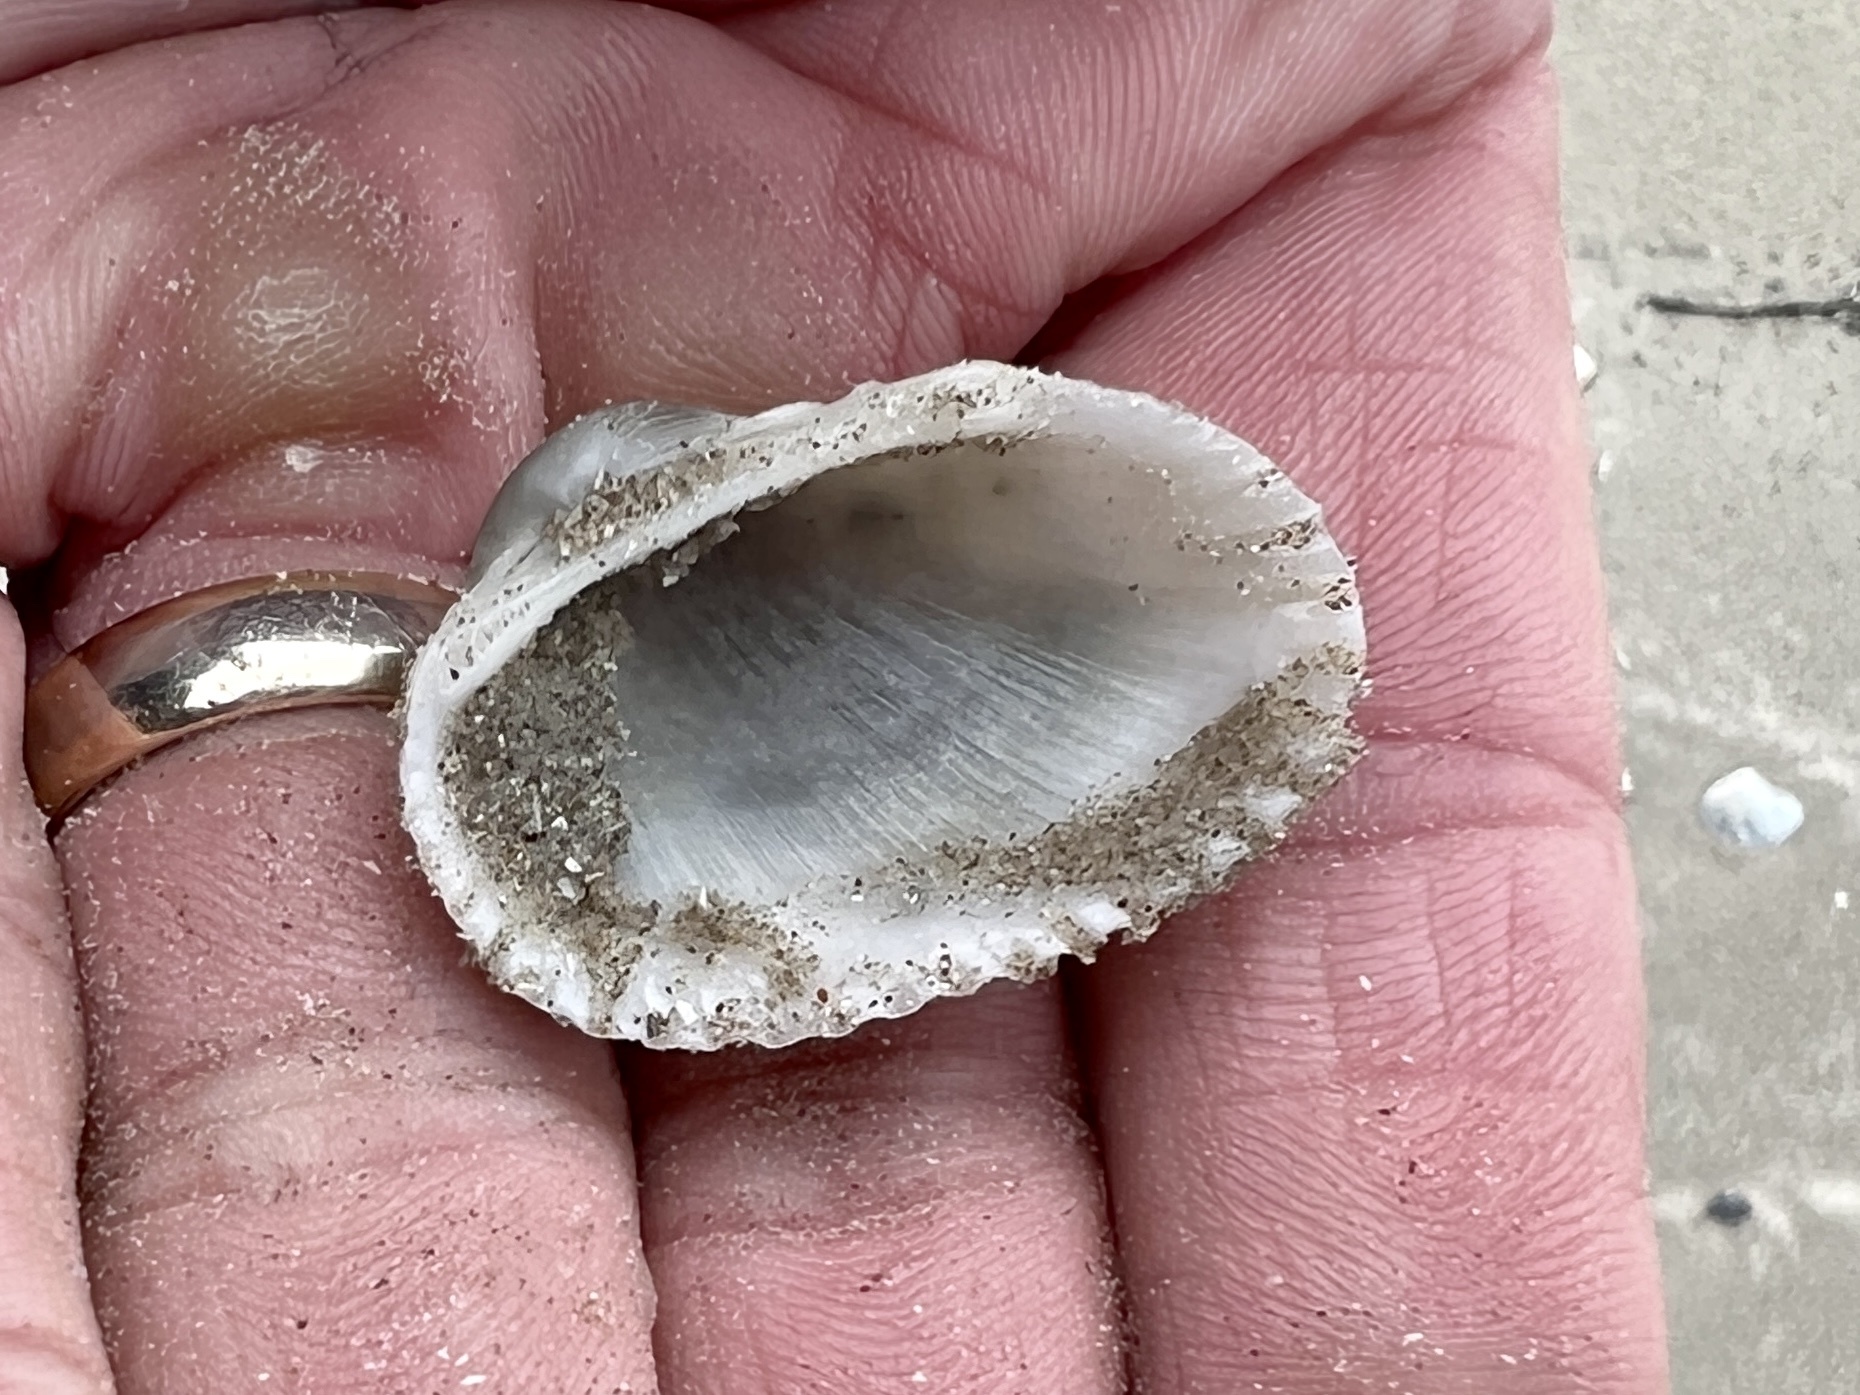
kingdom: Animalia
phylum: Mollusca
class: Bivalvia
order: Arcida
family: Arcidae
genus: Anadara
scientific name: Anadara transversa
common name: Transverse ark
